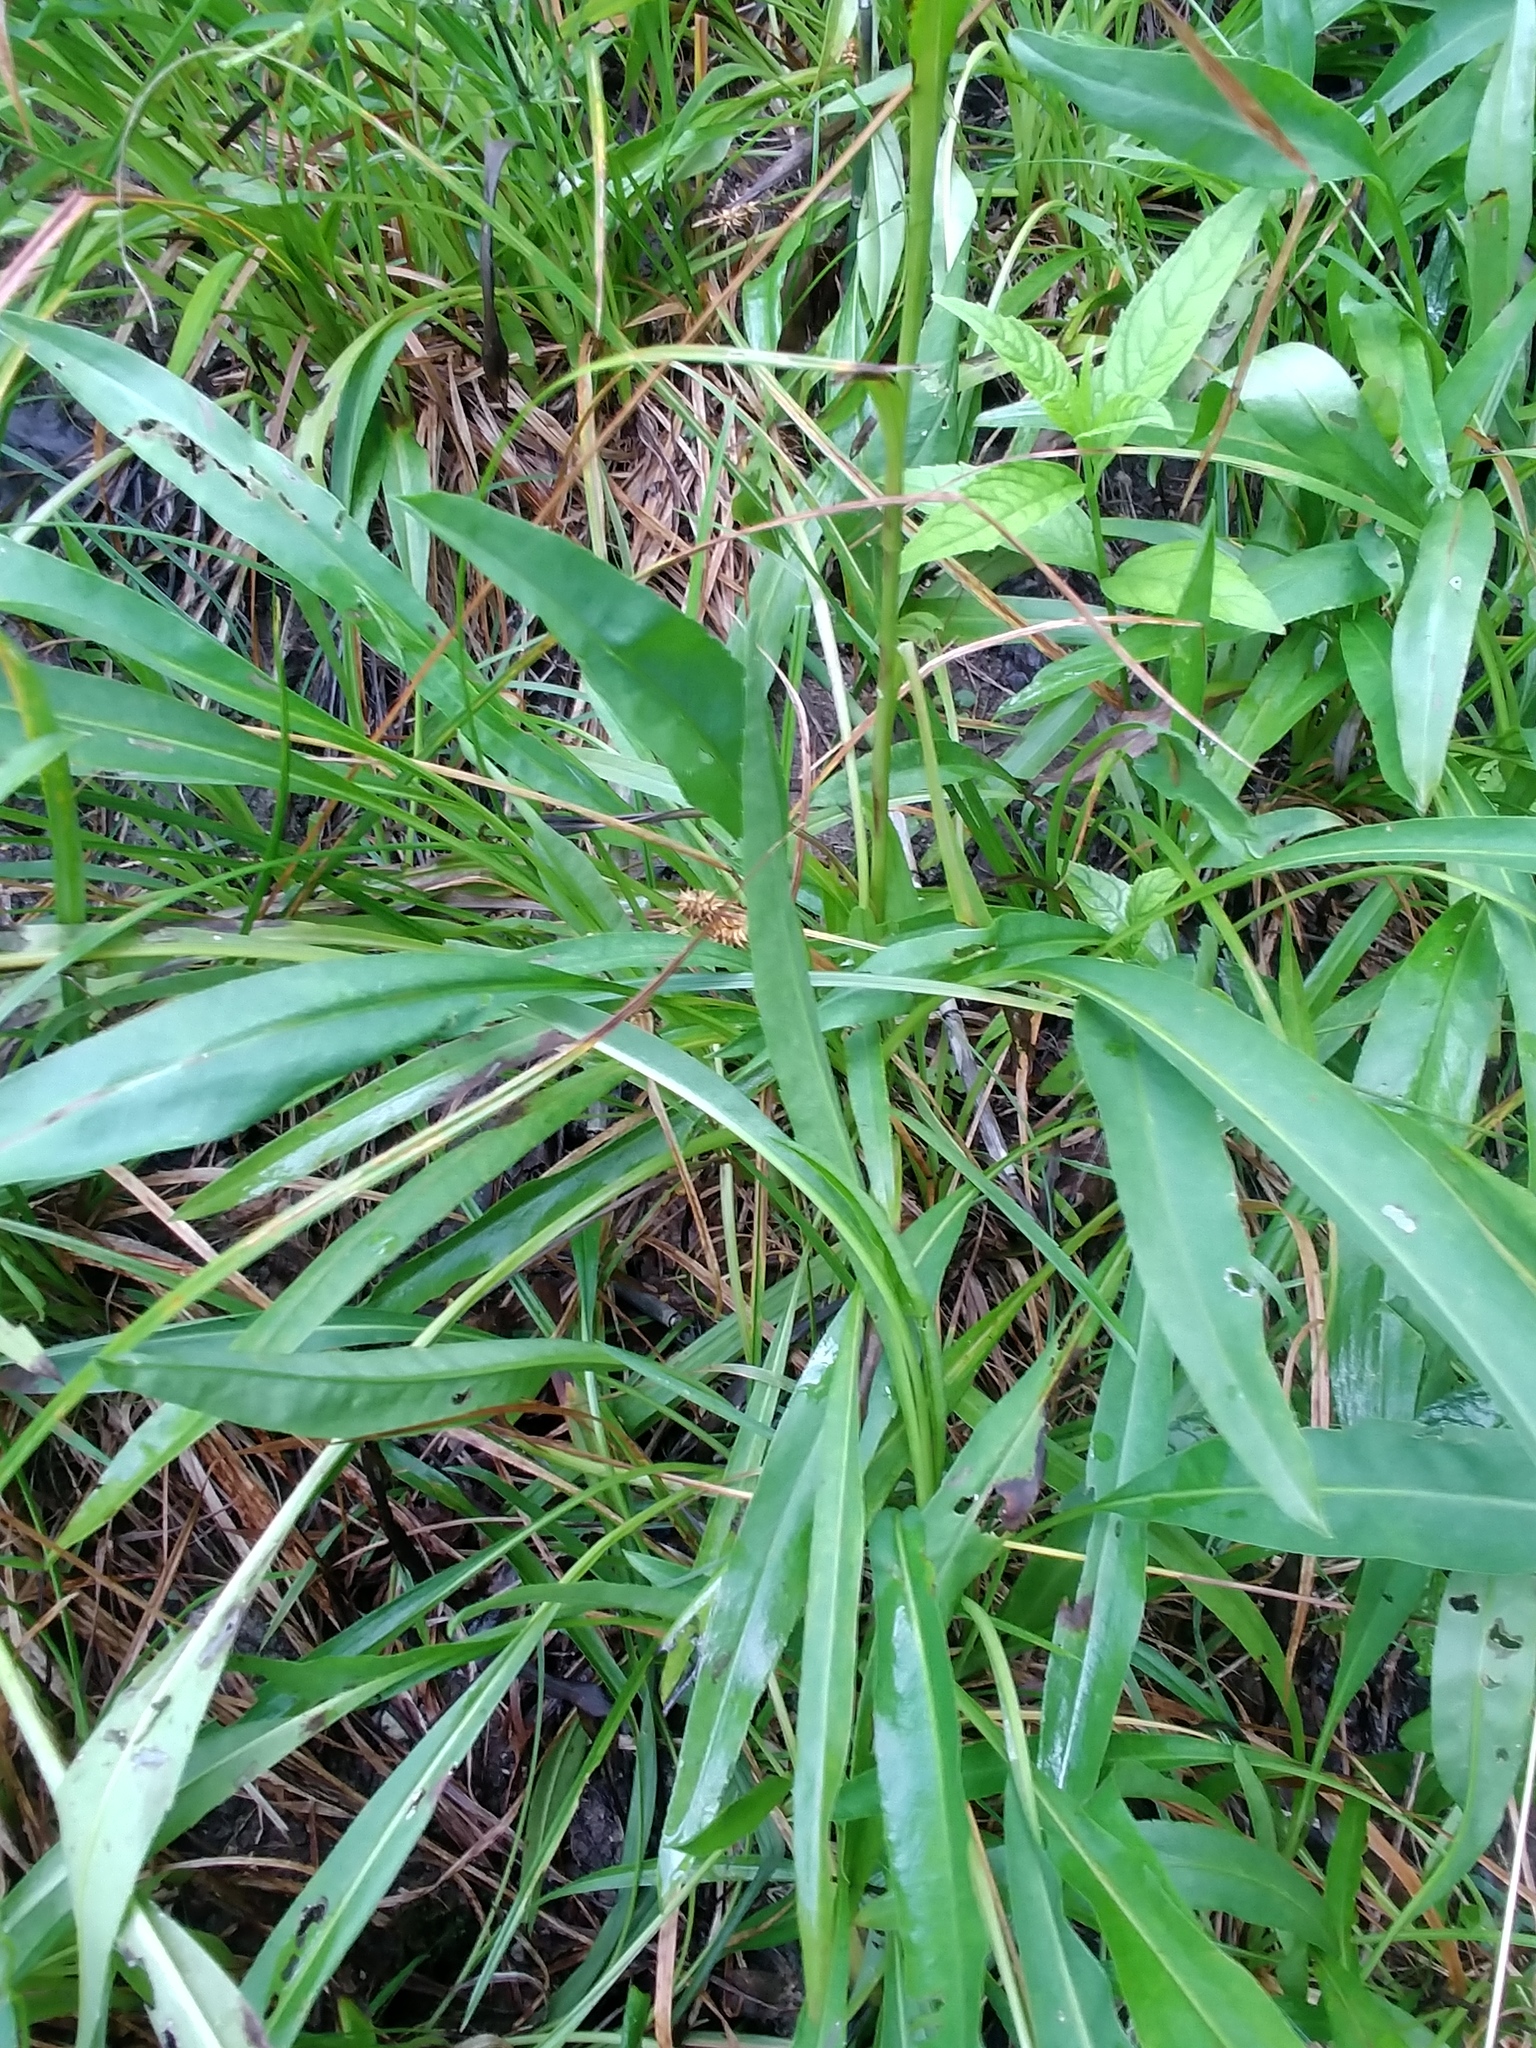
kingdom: Plantae
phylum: Tracheophyta
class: Magnoliopsida
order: Asterales
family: Asteraceae
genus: Solidago
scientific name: Solidago ohioensis
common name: Ohio goldenrod
